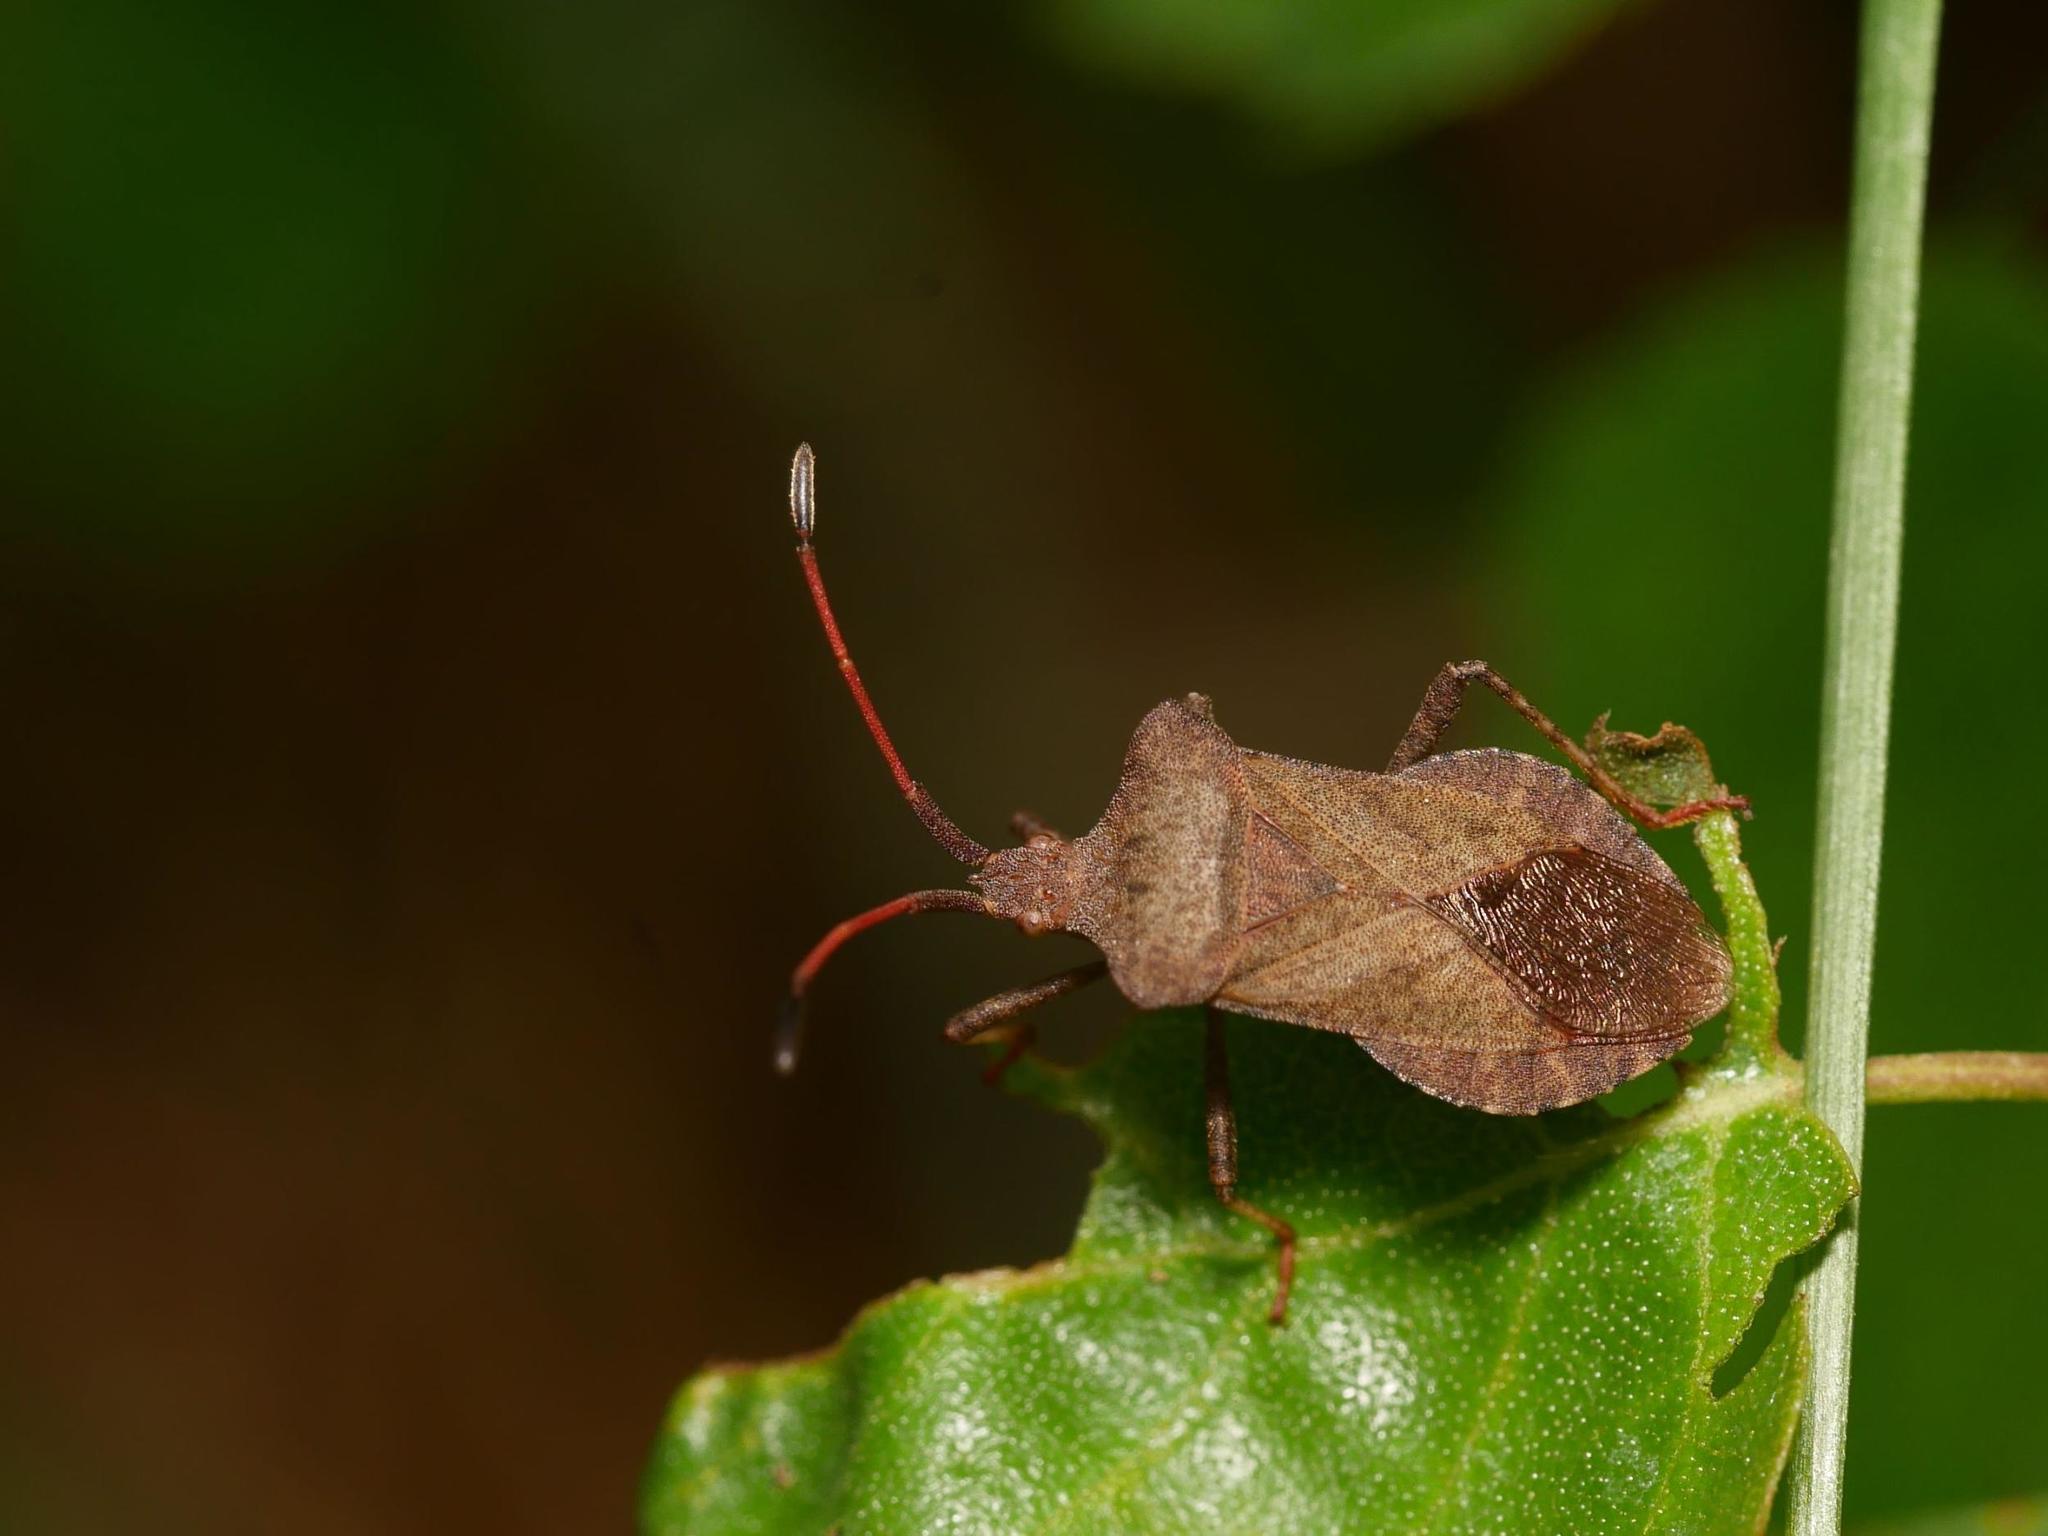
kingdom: Animalia
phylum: Arthropoda
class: Insecta
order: Hemiptera
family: Coreidae
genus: Coreus
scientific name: Coreus marginatus
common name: Dock bug
